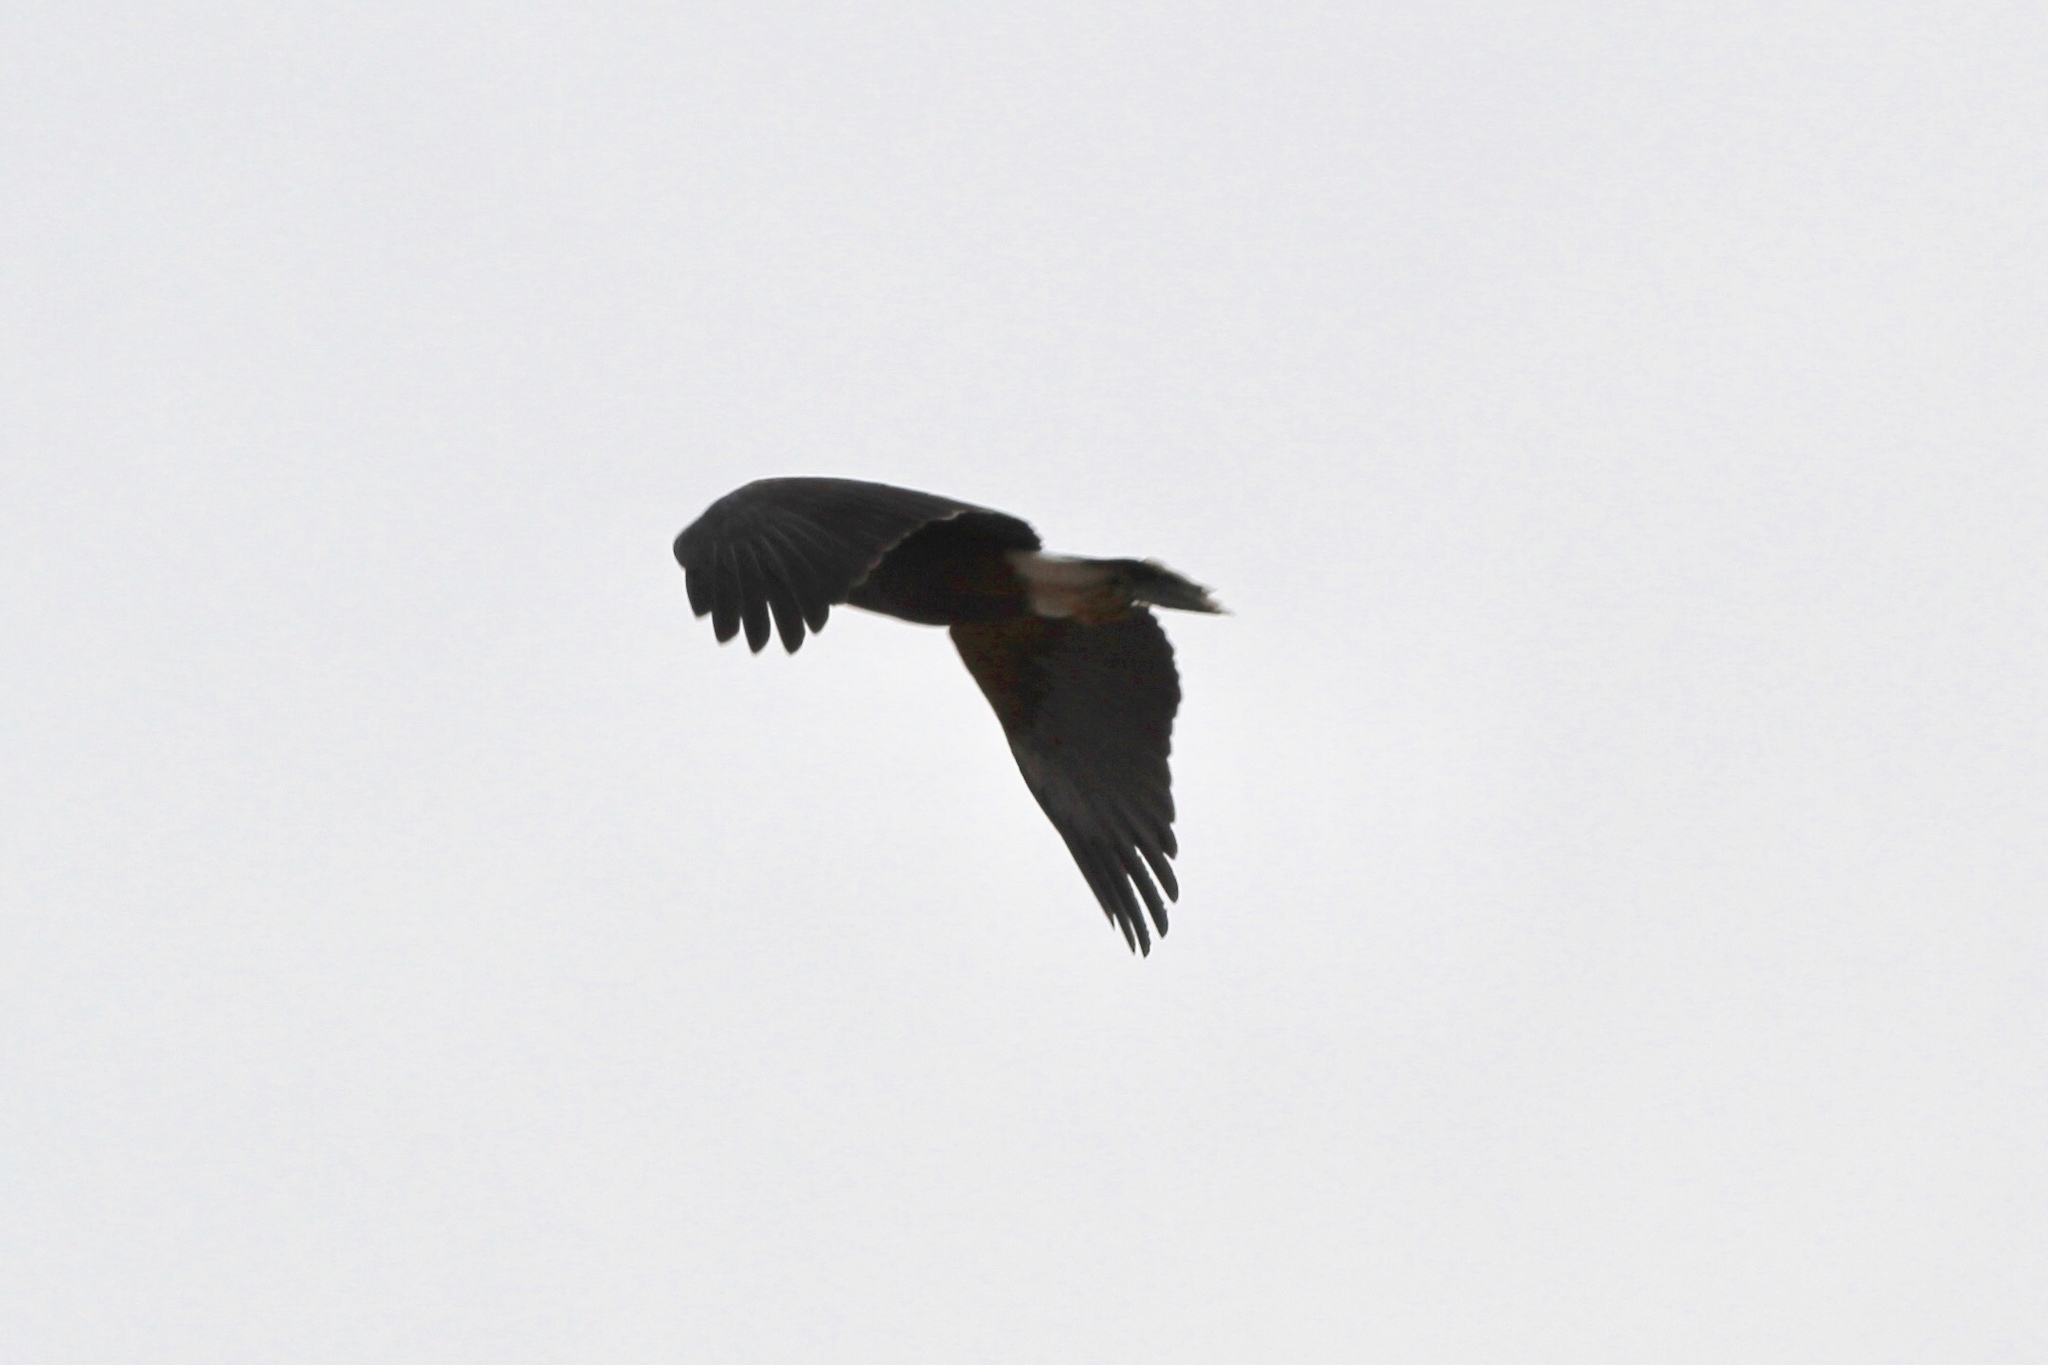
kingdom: Animalia
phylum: Chordata
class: Aves
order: Accipitriformes
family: Accipitridae
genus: Parabuteo
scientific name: Parabuteo unicinctus
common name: Harris's hawk
